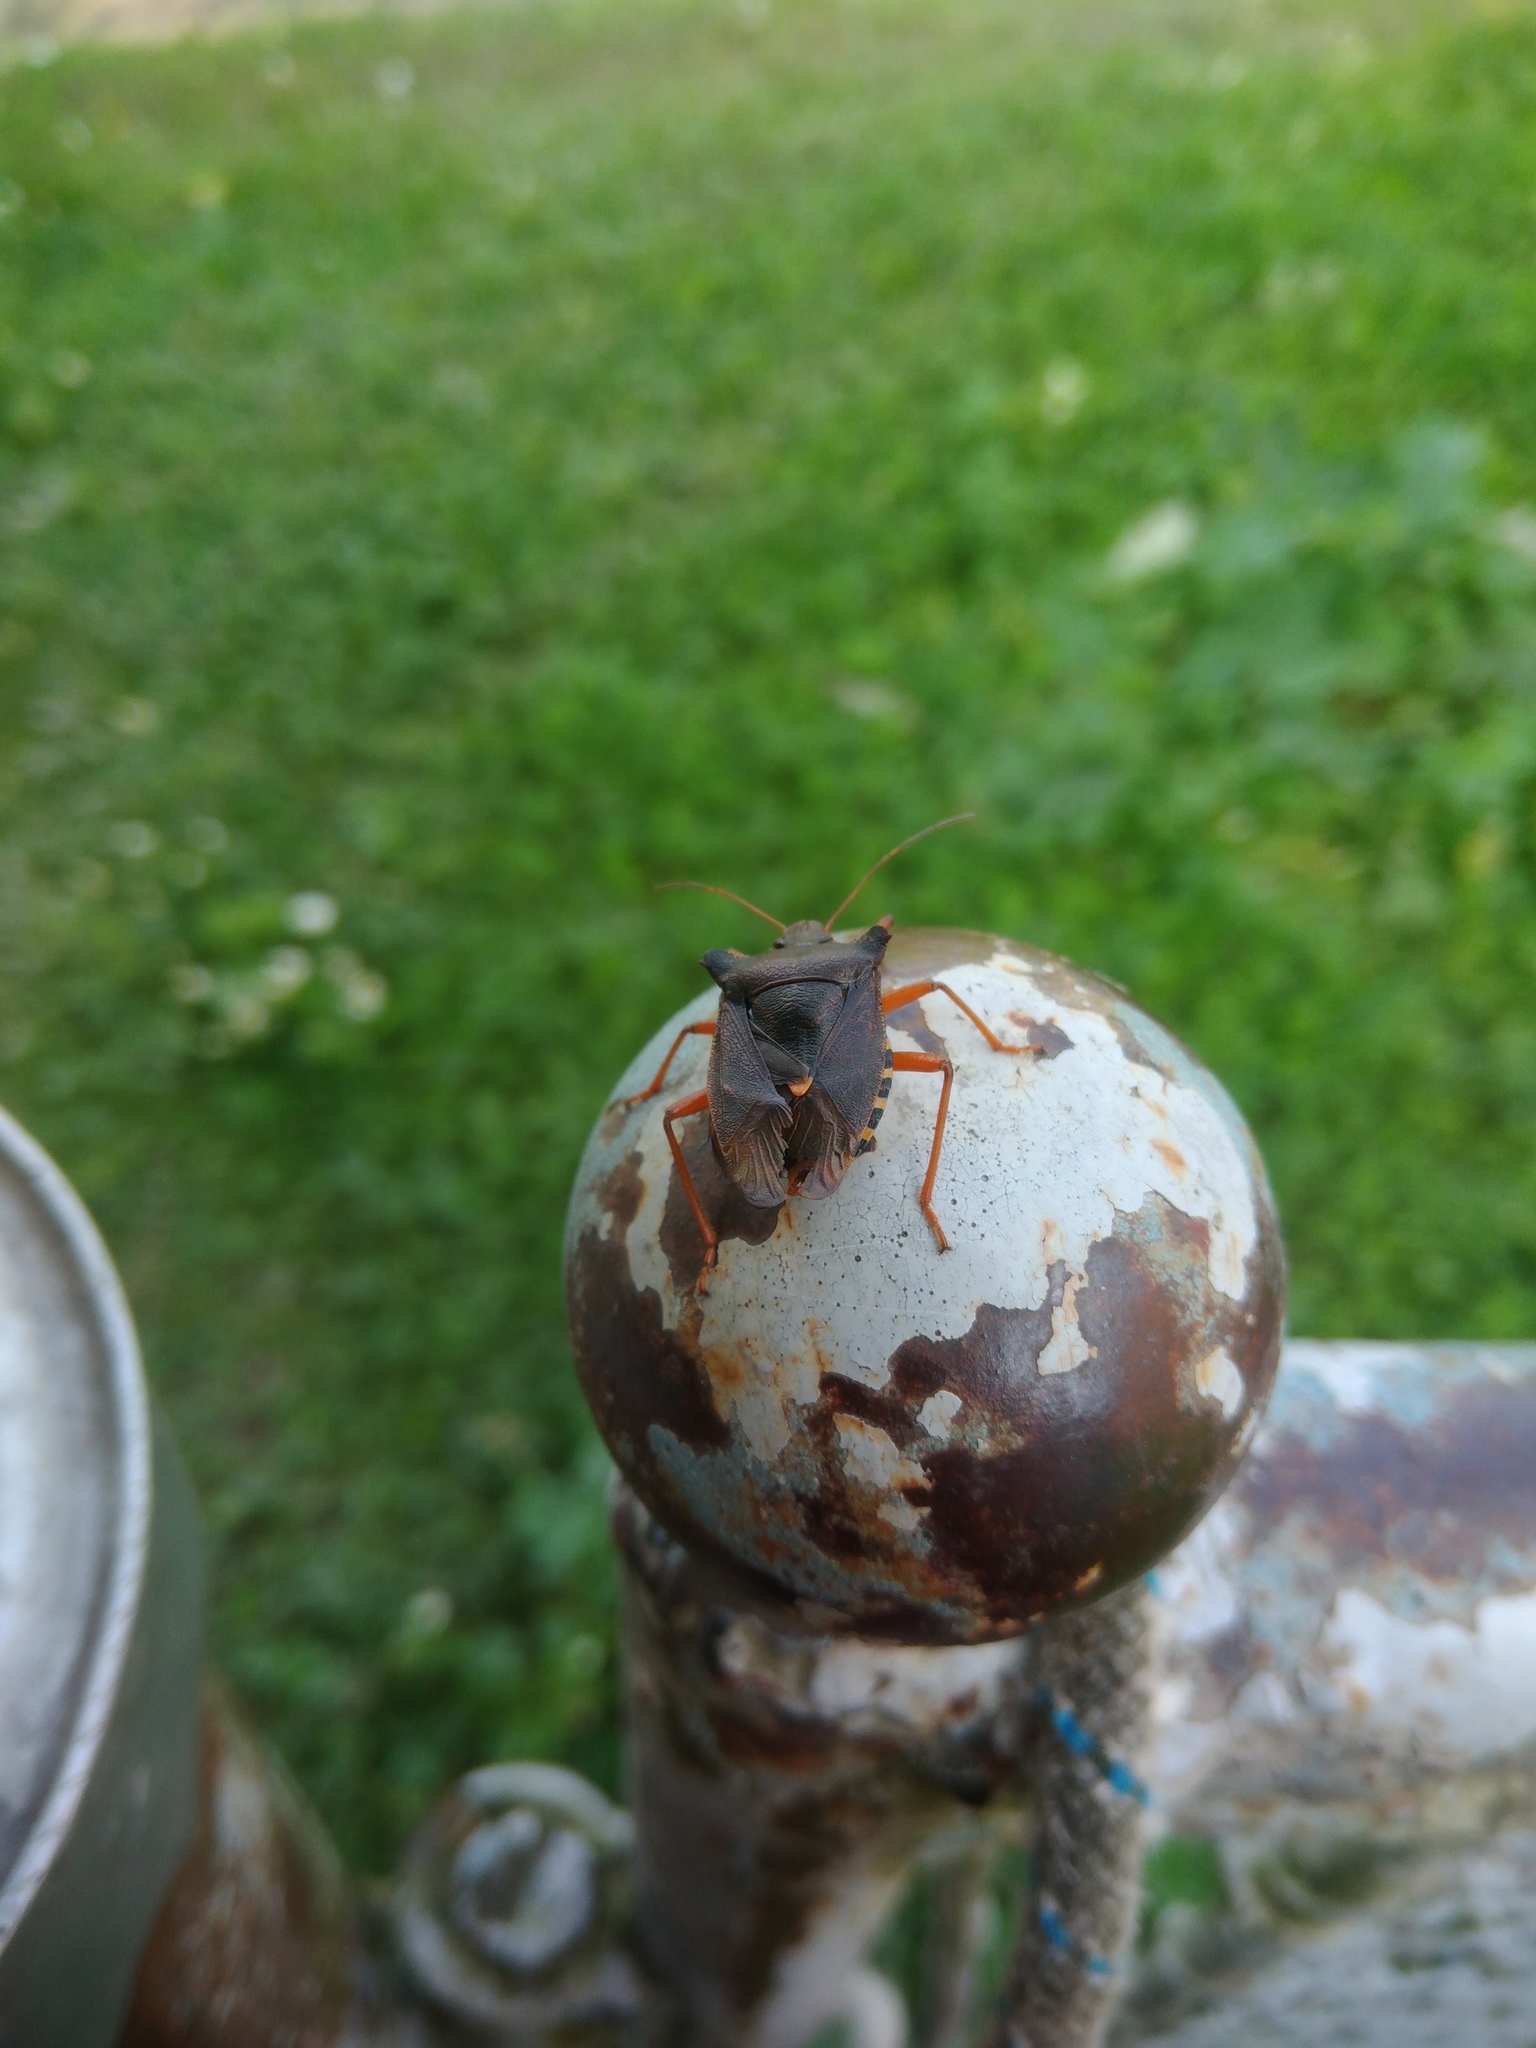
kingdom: Animalia
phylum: Arthropoda
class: Insecta
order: Hemiptera
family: Pentatomidae
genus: Pentatoma
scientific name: Pentatoma rufipes
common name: Forest bug
